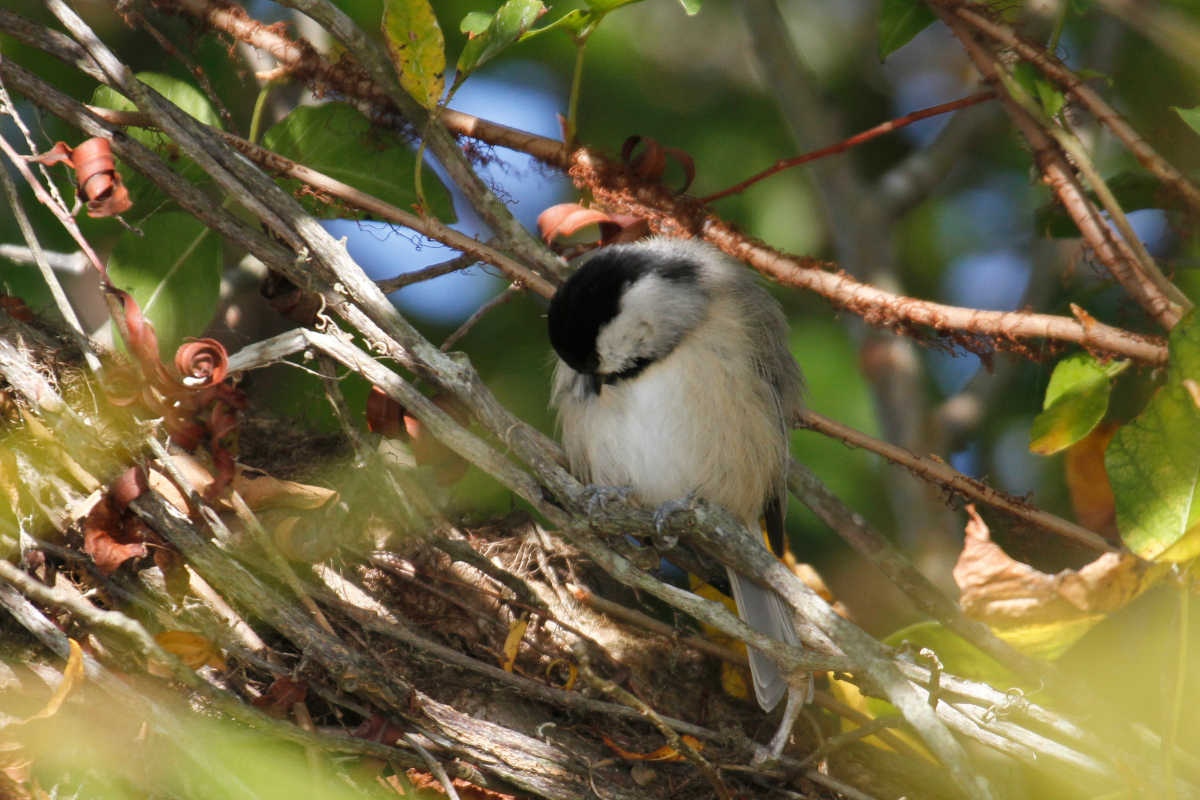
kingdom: Animalia
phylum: Chordata
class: Aves
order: Passeriformes
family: Paridae
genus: Poecile
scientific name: Poecile carolinensis
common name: Carolina chickadee
